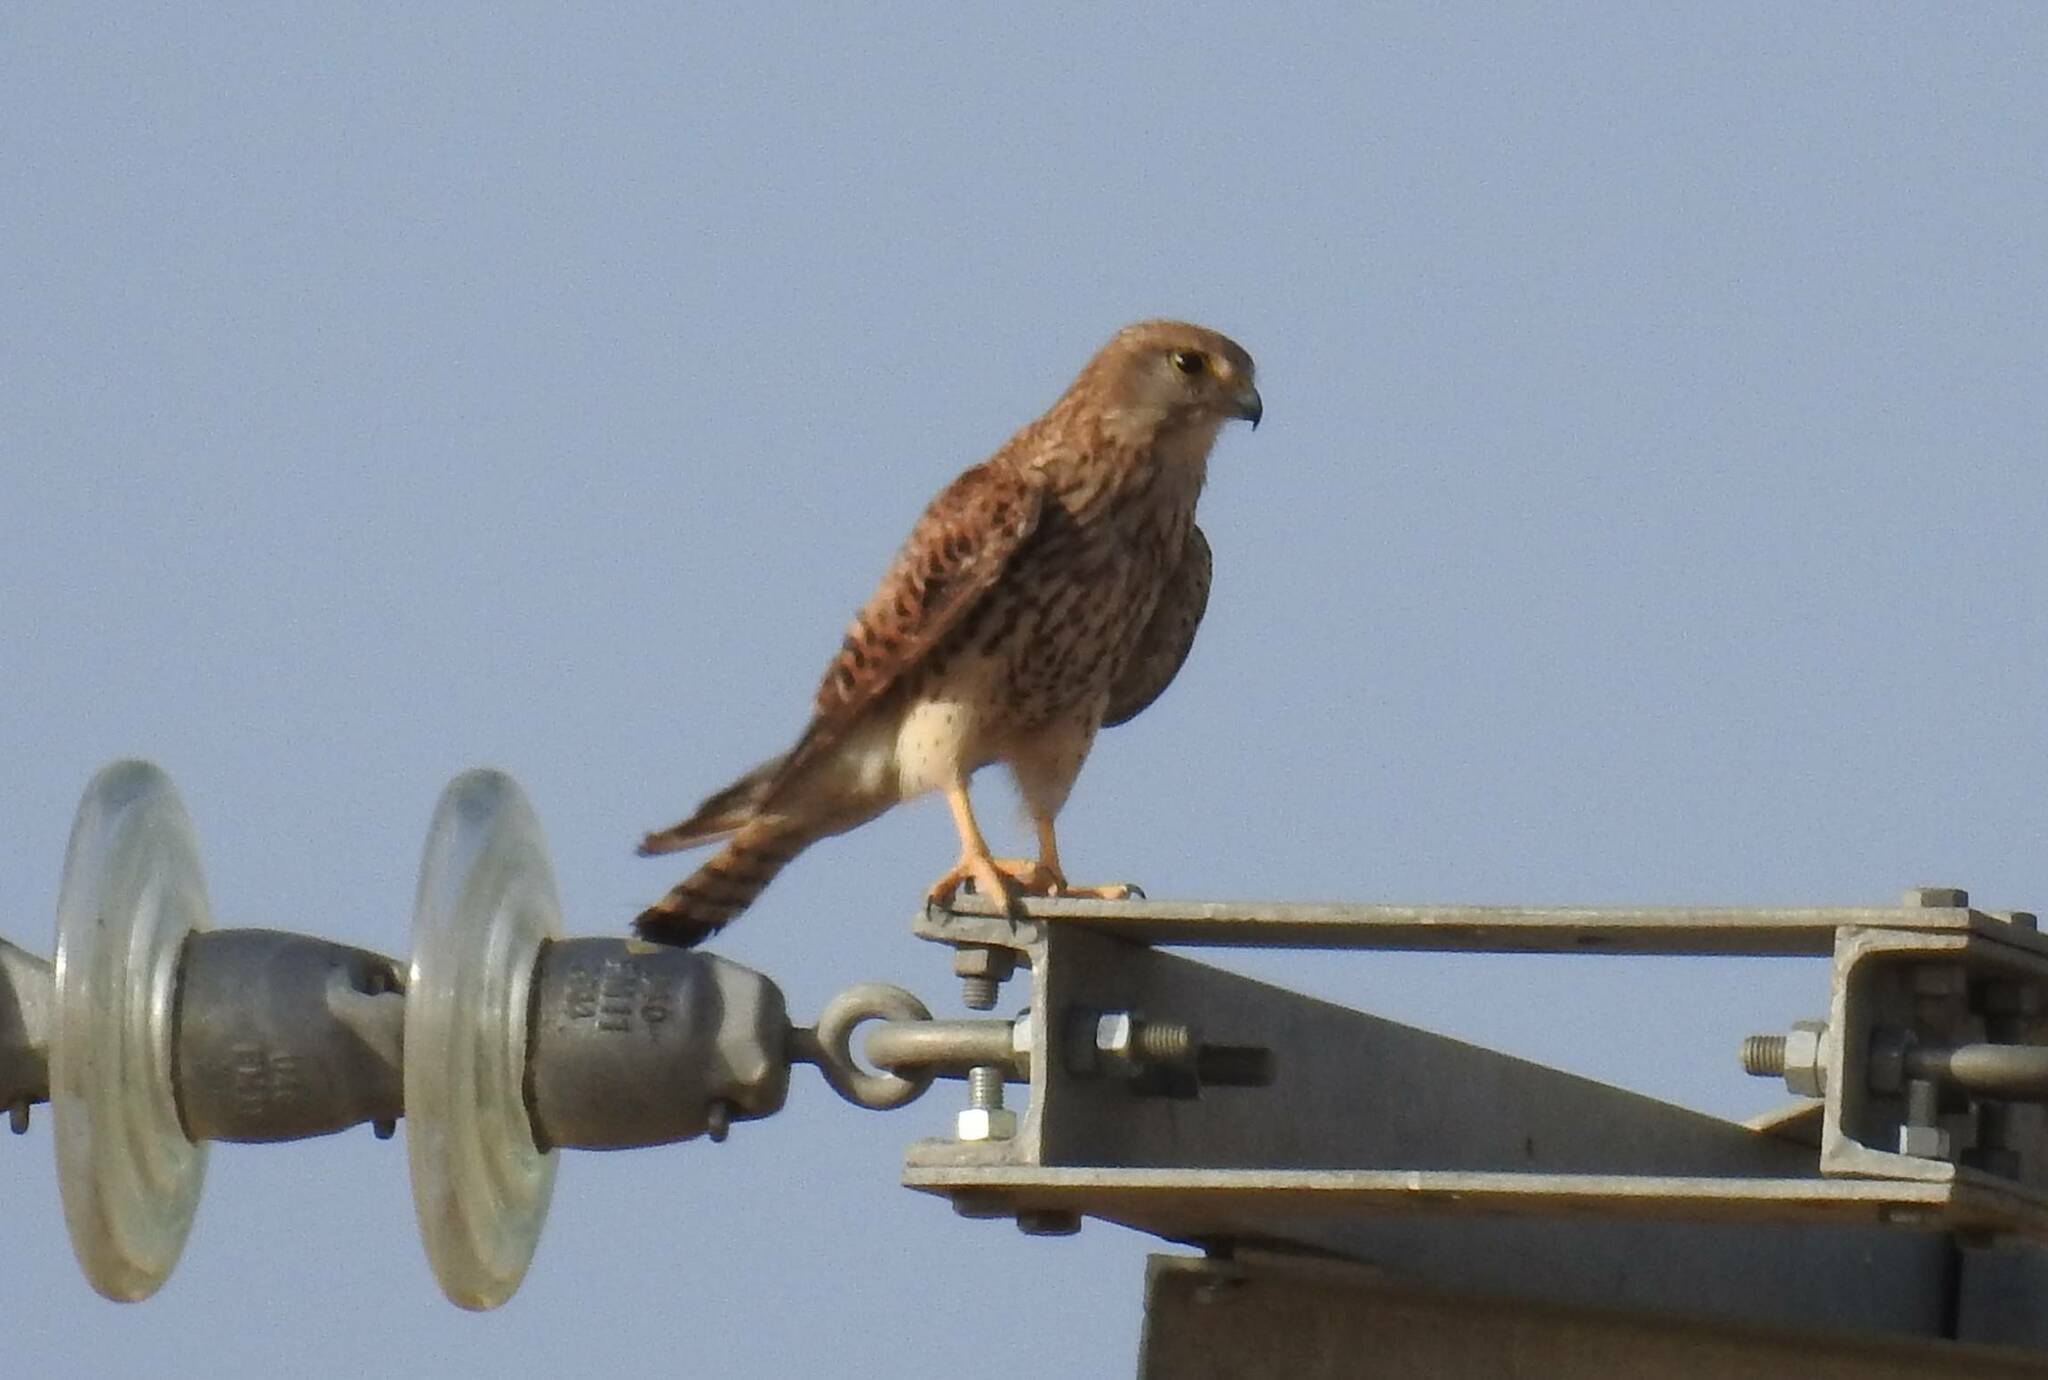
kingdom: Animalia
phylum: Chordata
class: Aves
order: Falconiformes
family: Falconidae
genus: Falco
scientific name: Falco tinnunculus
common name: Common kestrel
